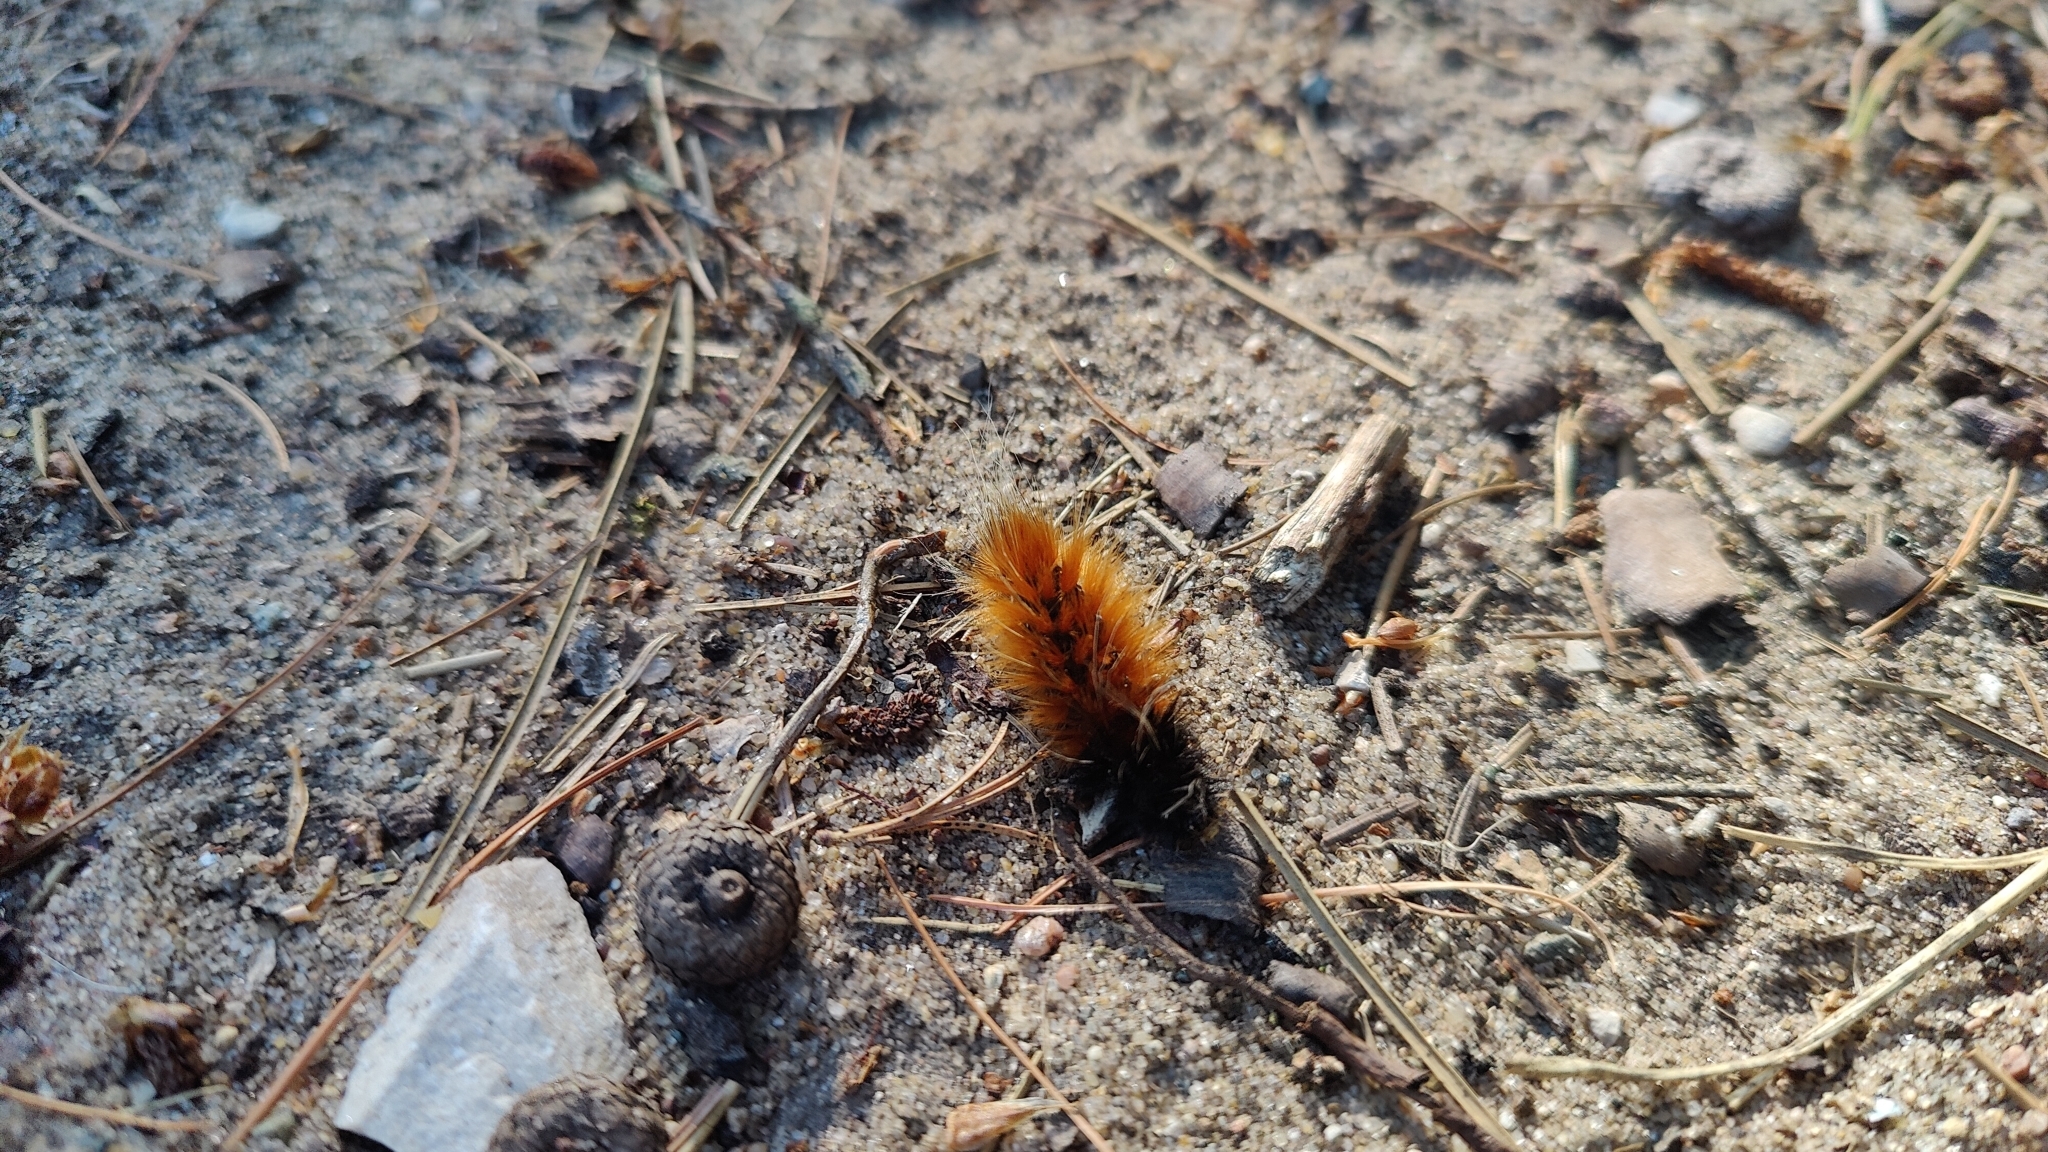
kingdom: Animalia
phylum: Arthropoda
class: Insecta
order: Lepidoptera
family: Erebidae
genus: Pyrrharctia
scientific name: Pyrrharctia isabella
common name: Isabella tiger moth
